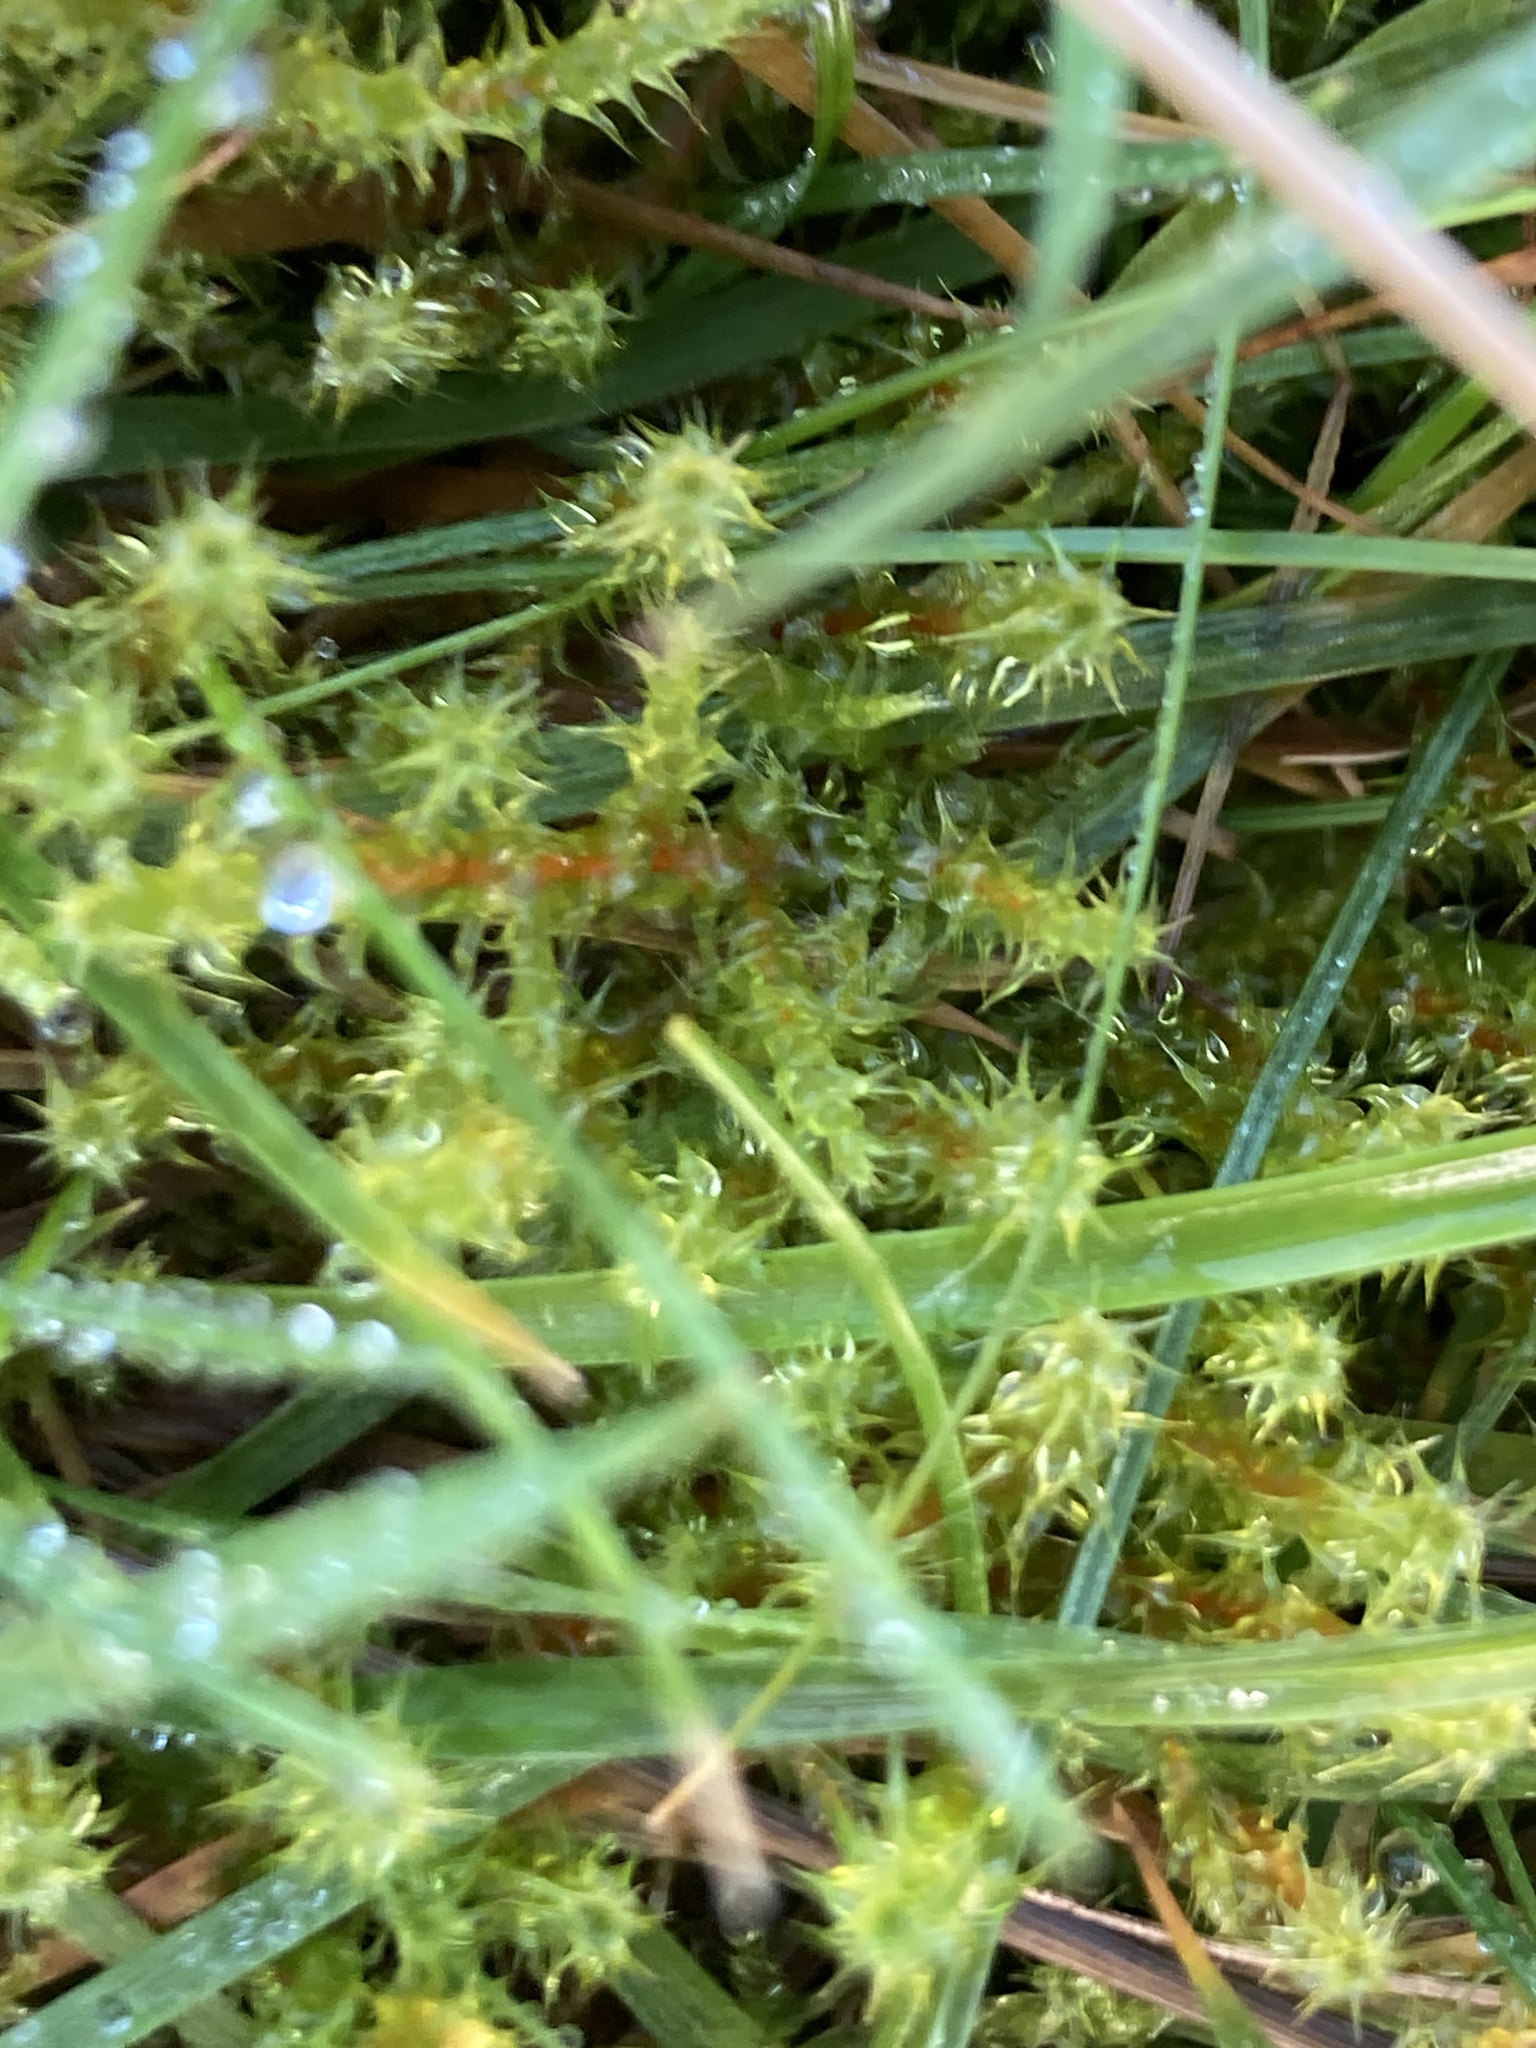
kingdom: Plantae
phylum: Bryophyta
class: Bryopsida
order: Hypnales
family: Hylocomiaceae
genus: Rhytidiadelphus
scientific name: Rhytidiadelphus squarrosus
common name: Springy turf-moss
